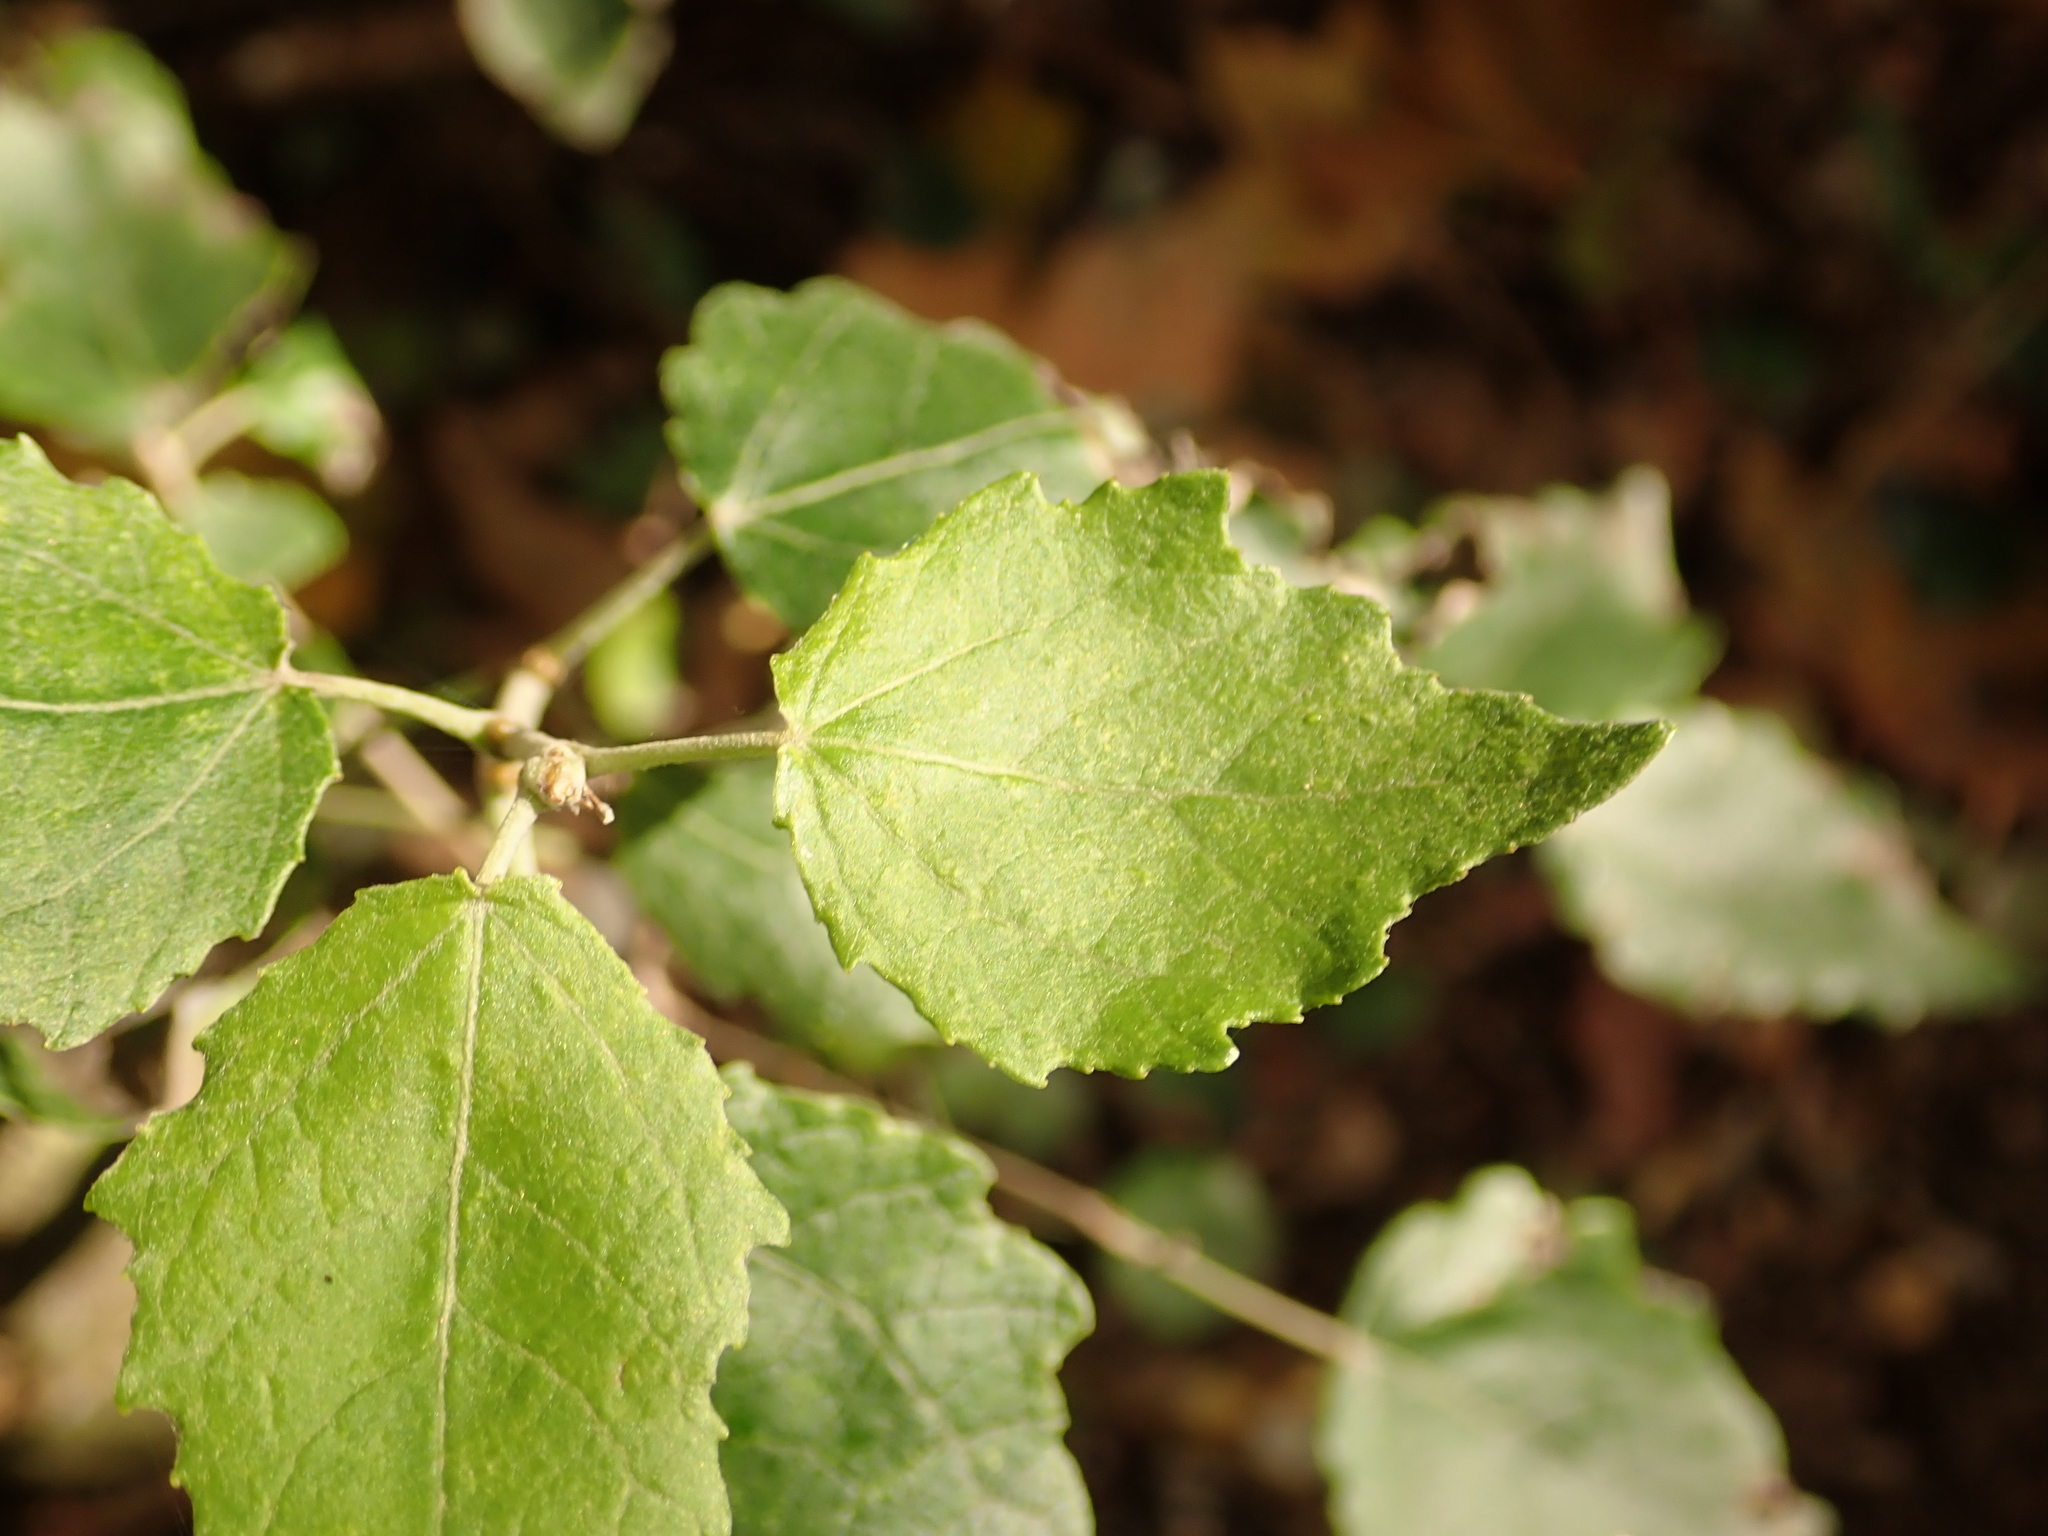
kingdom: Plantae
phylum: Tracheophyta
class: Magnoliopsida
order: Malpighiales
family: Salicaceae
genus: Populus
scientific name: Populus alba
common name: White poplar
